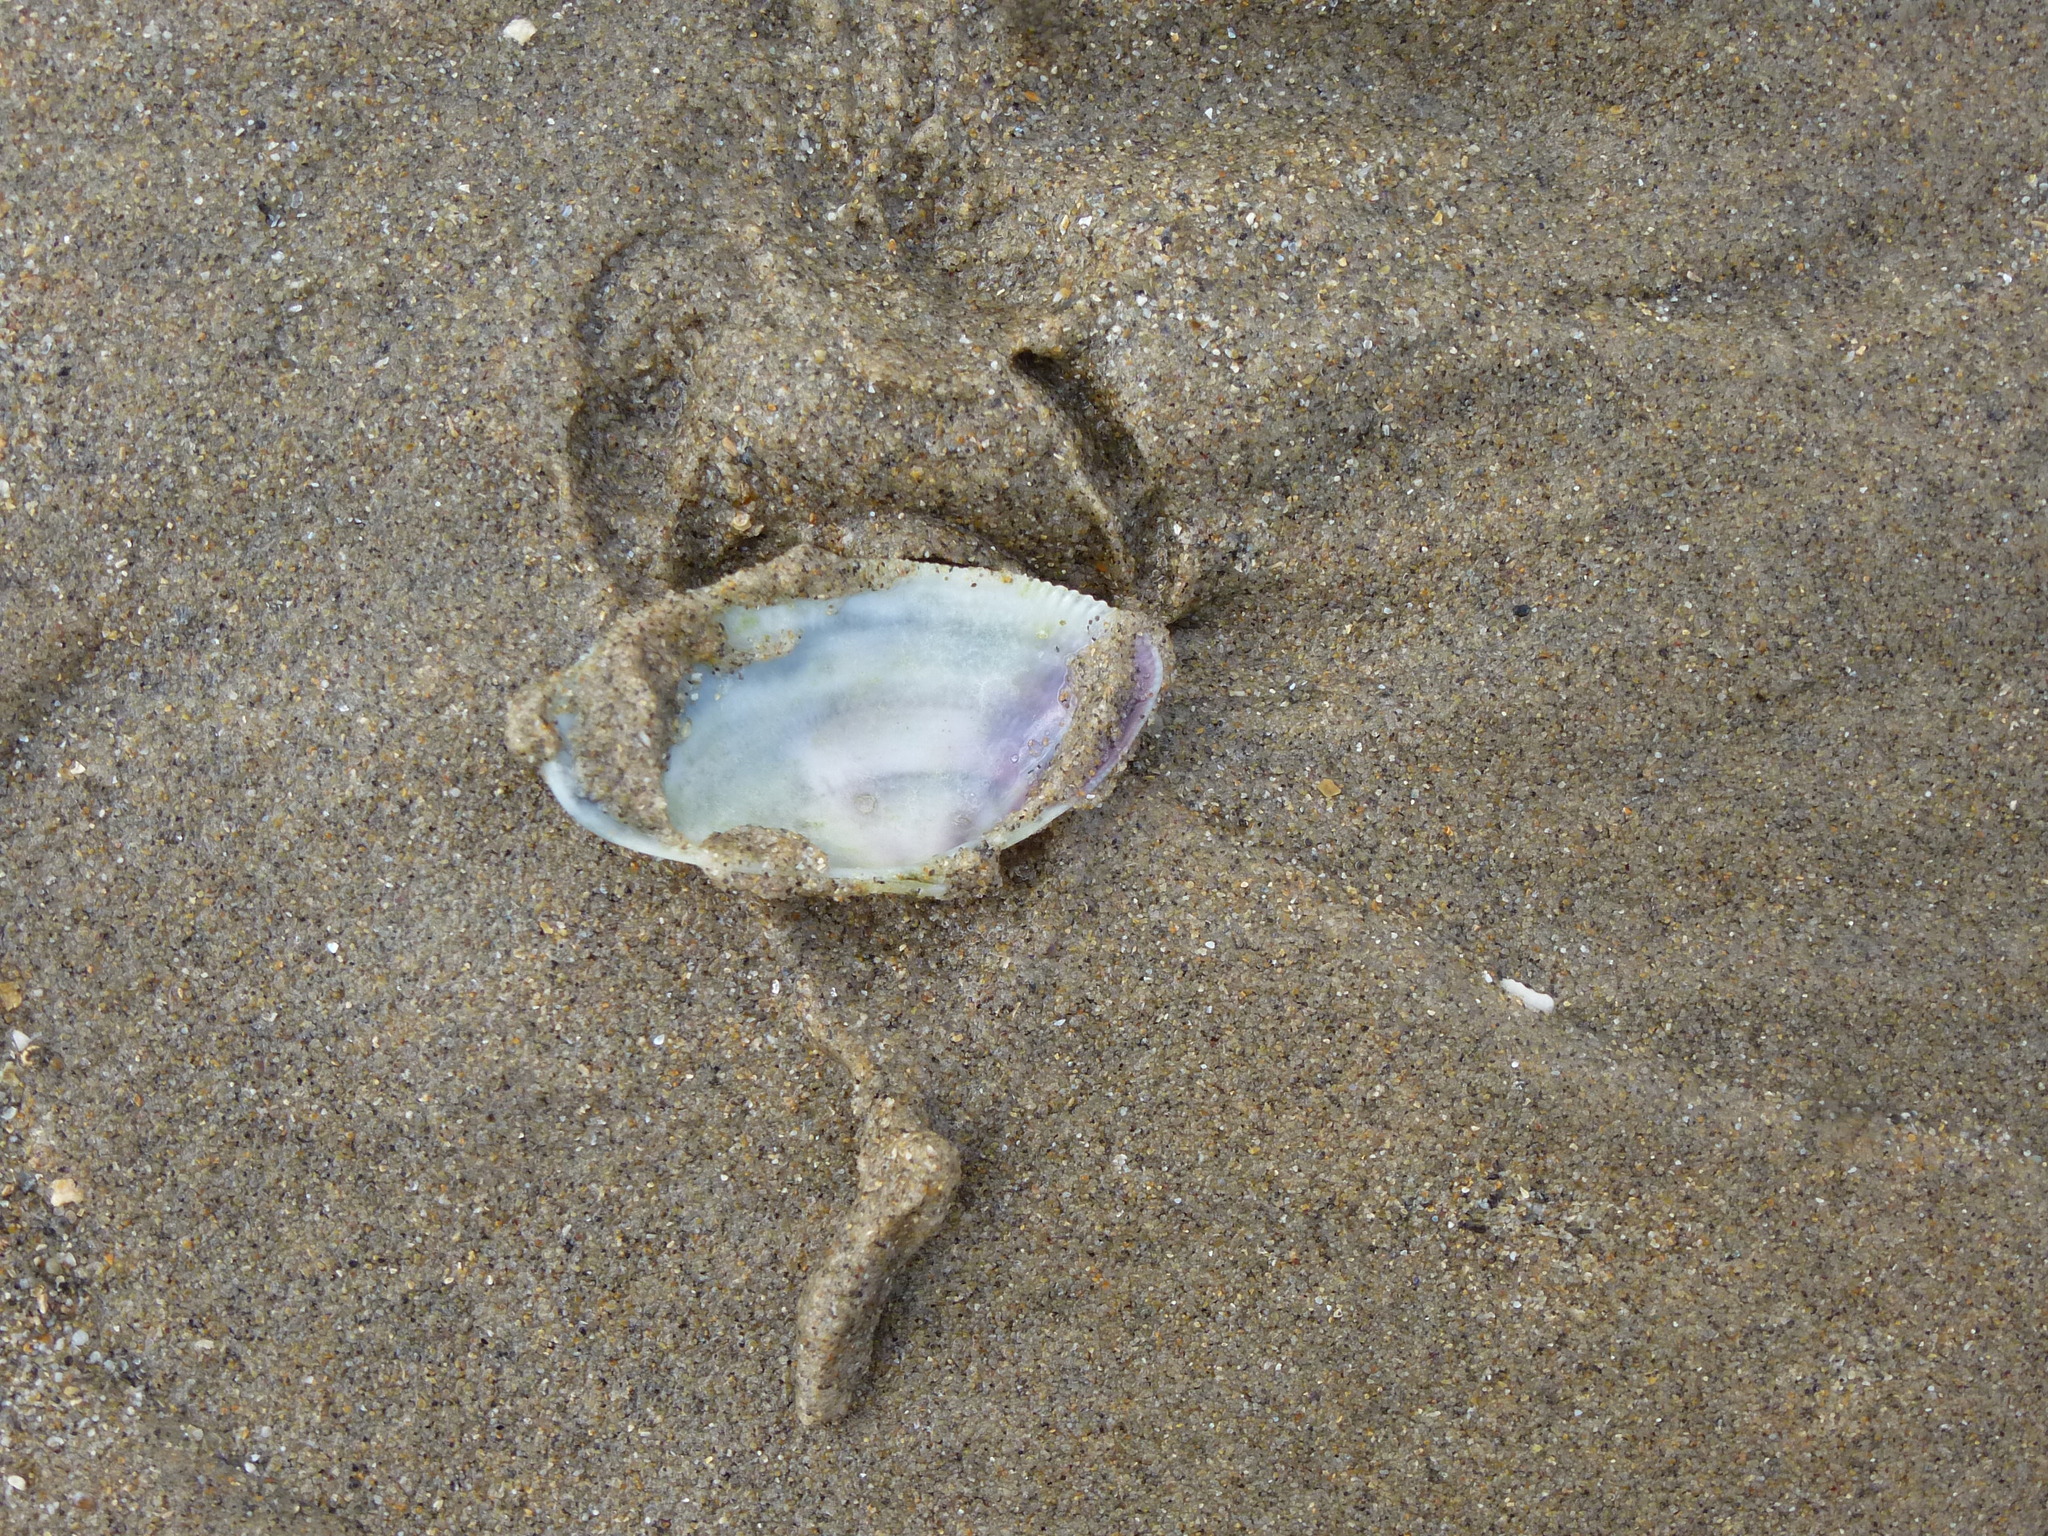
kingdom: Animalia
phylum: Mollusca
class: Bivalvia
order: Cardiida
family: Donacidae
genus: Donax
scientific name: Donax vittatus
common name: Banded wedge-shell
